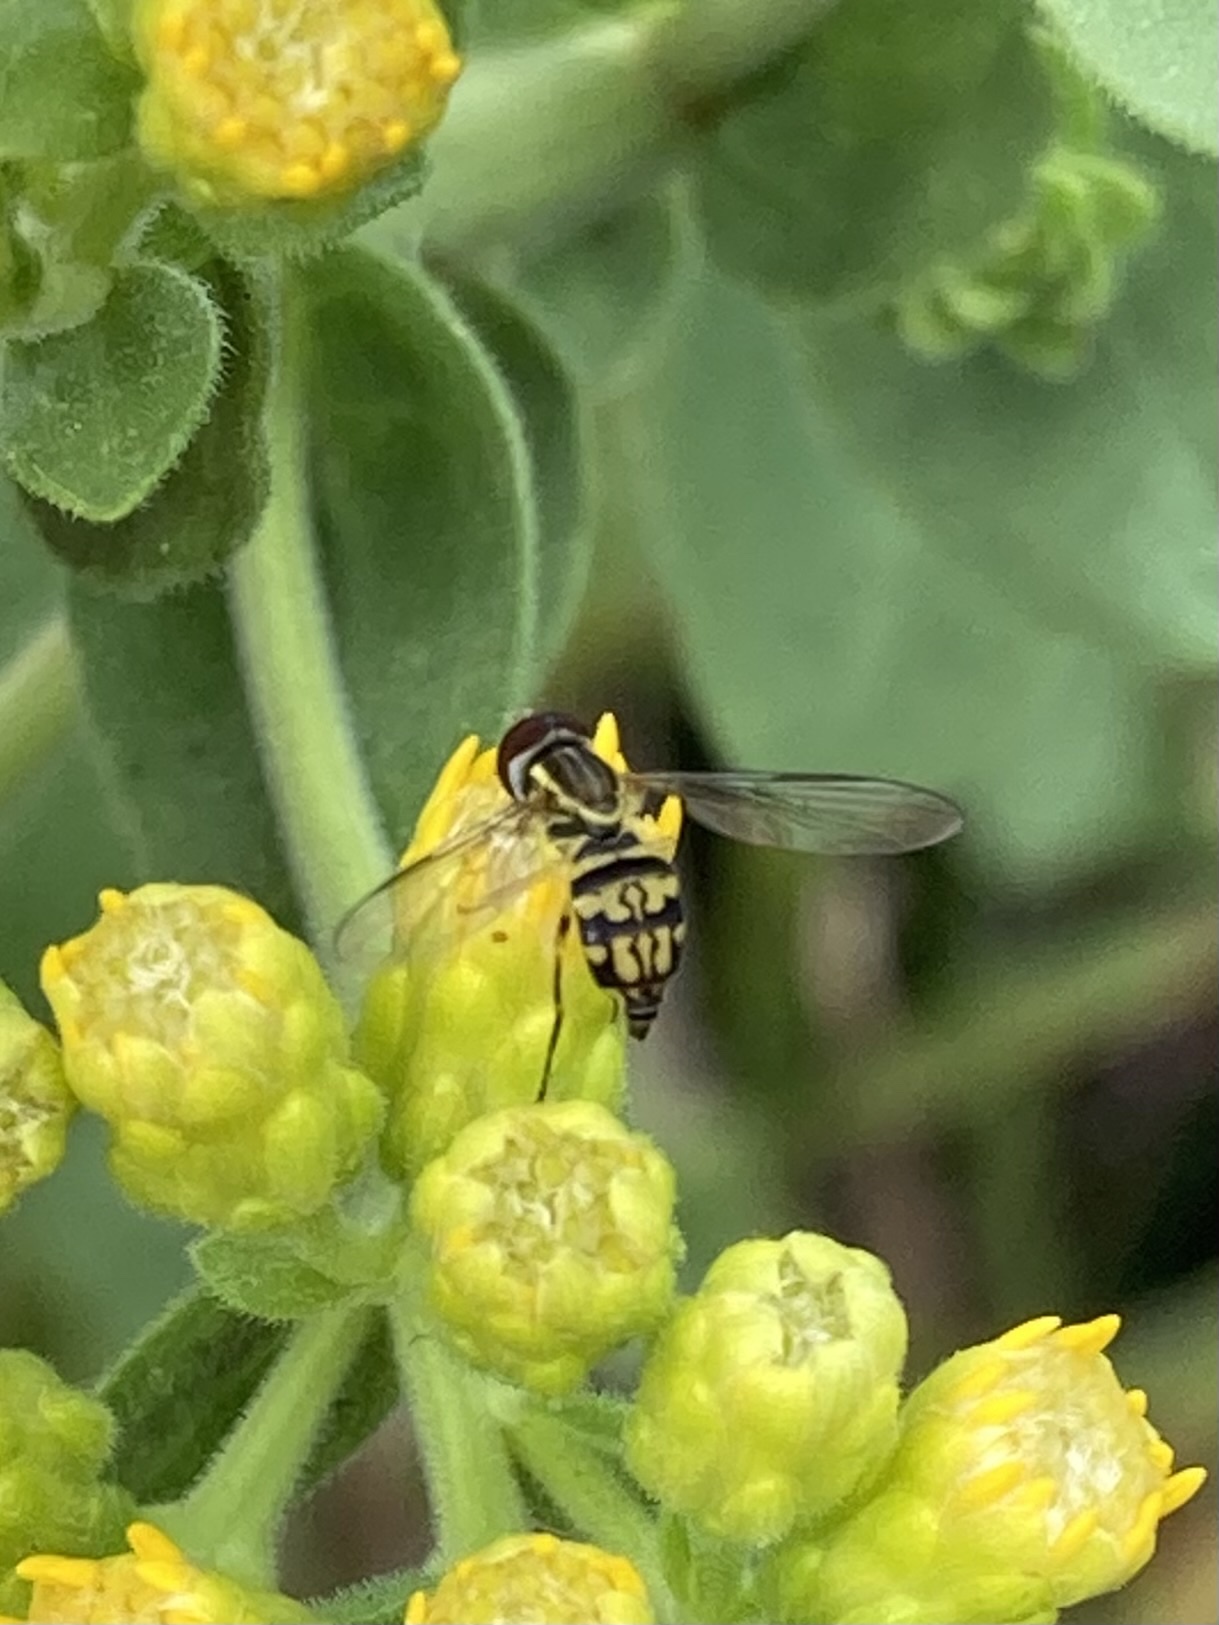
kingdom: Animalia
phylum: Arthropoda
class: Insecta
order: Diptera
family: Syrphidae
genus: Toxomerus
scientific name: Toxomerus geminatus
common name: Eastern calligrapher
